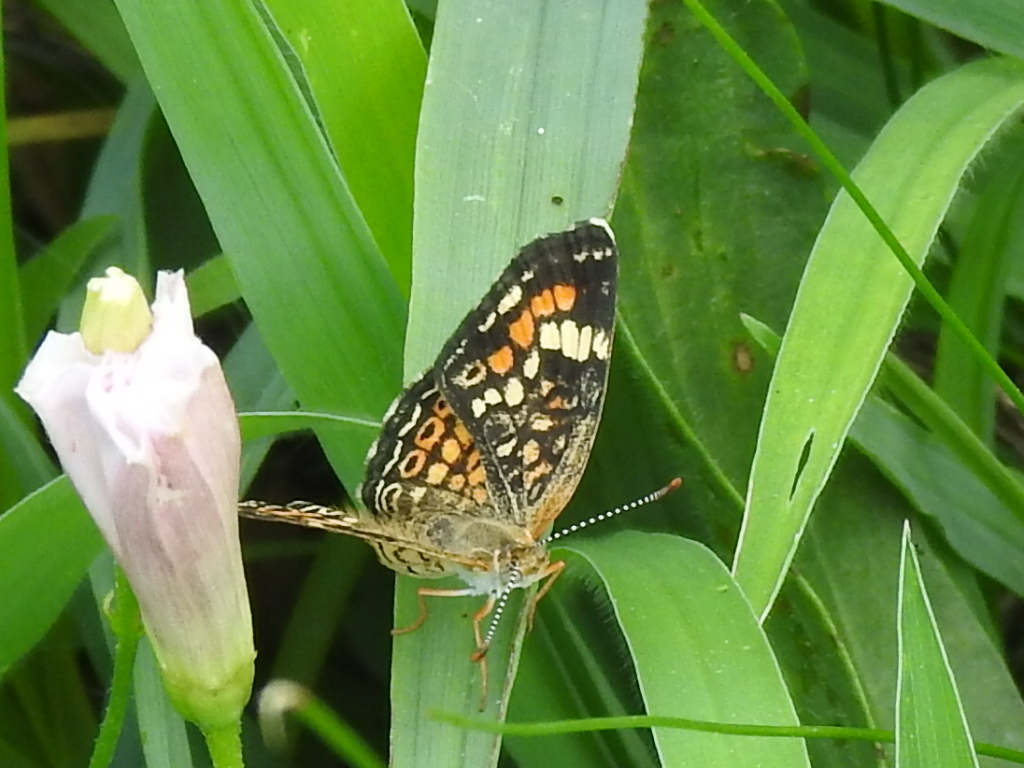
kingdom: Animalia
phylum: Arthropoda
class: Insecta
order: Lepidoptera
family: Nymphalidae
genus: Phyciodes
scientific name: Phyciodes phaon
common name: Phaon crescent
